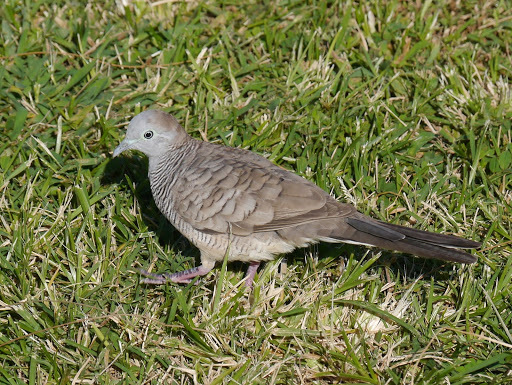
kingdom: Animalia
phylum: Chordata
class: Aves
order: Columbiformes
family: Columbidae
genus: Geopelia
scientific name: Geopelia striata
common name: Zebra dove
